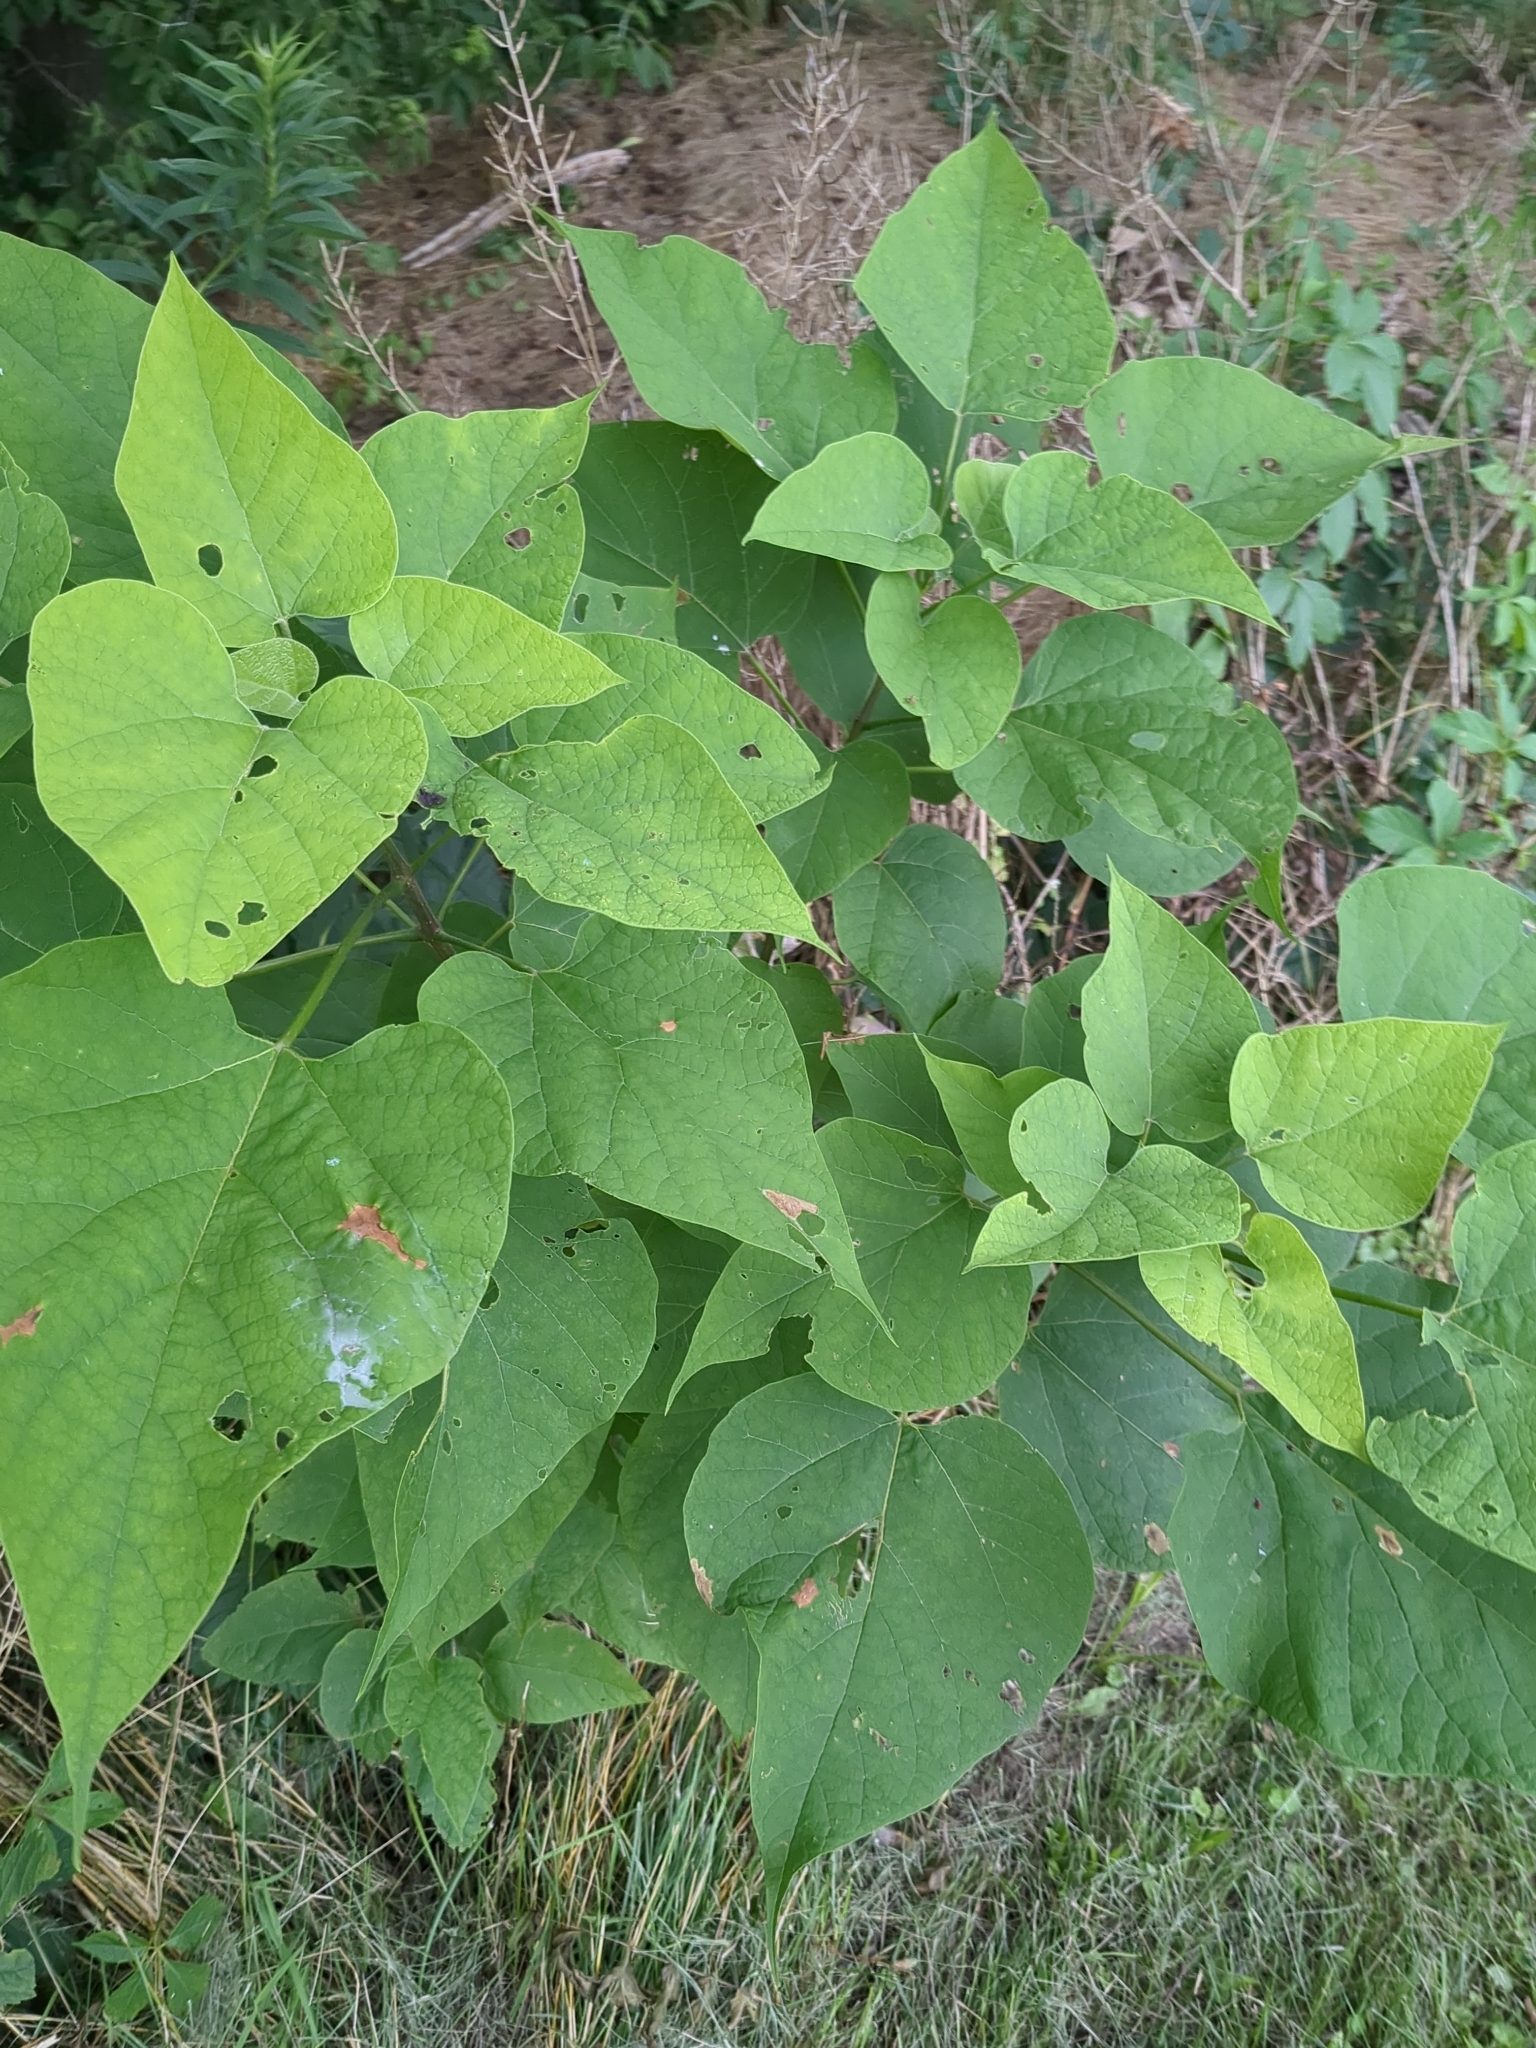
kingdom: Plantae
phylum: Tracheophyta
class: Magnoliopsida
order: Lamiales
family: Bignoniaceae
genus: Catalpa
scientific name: Catalpa speciosa
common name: Northern catalpa
